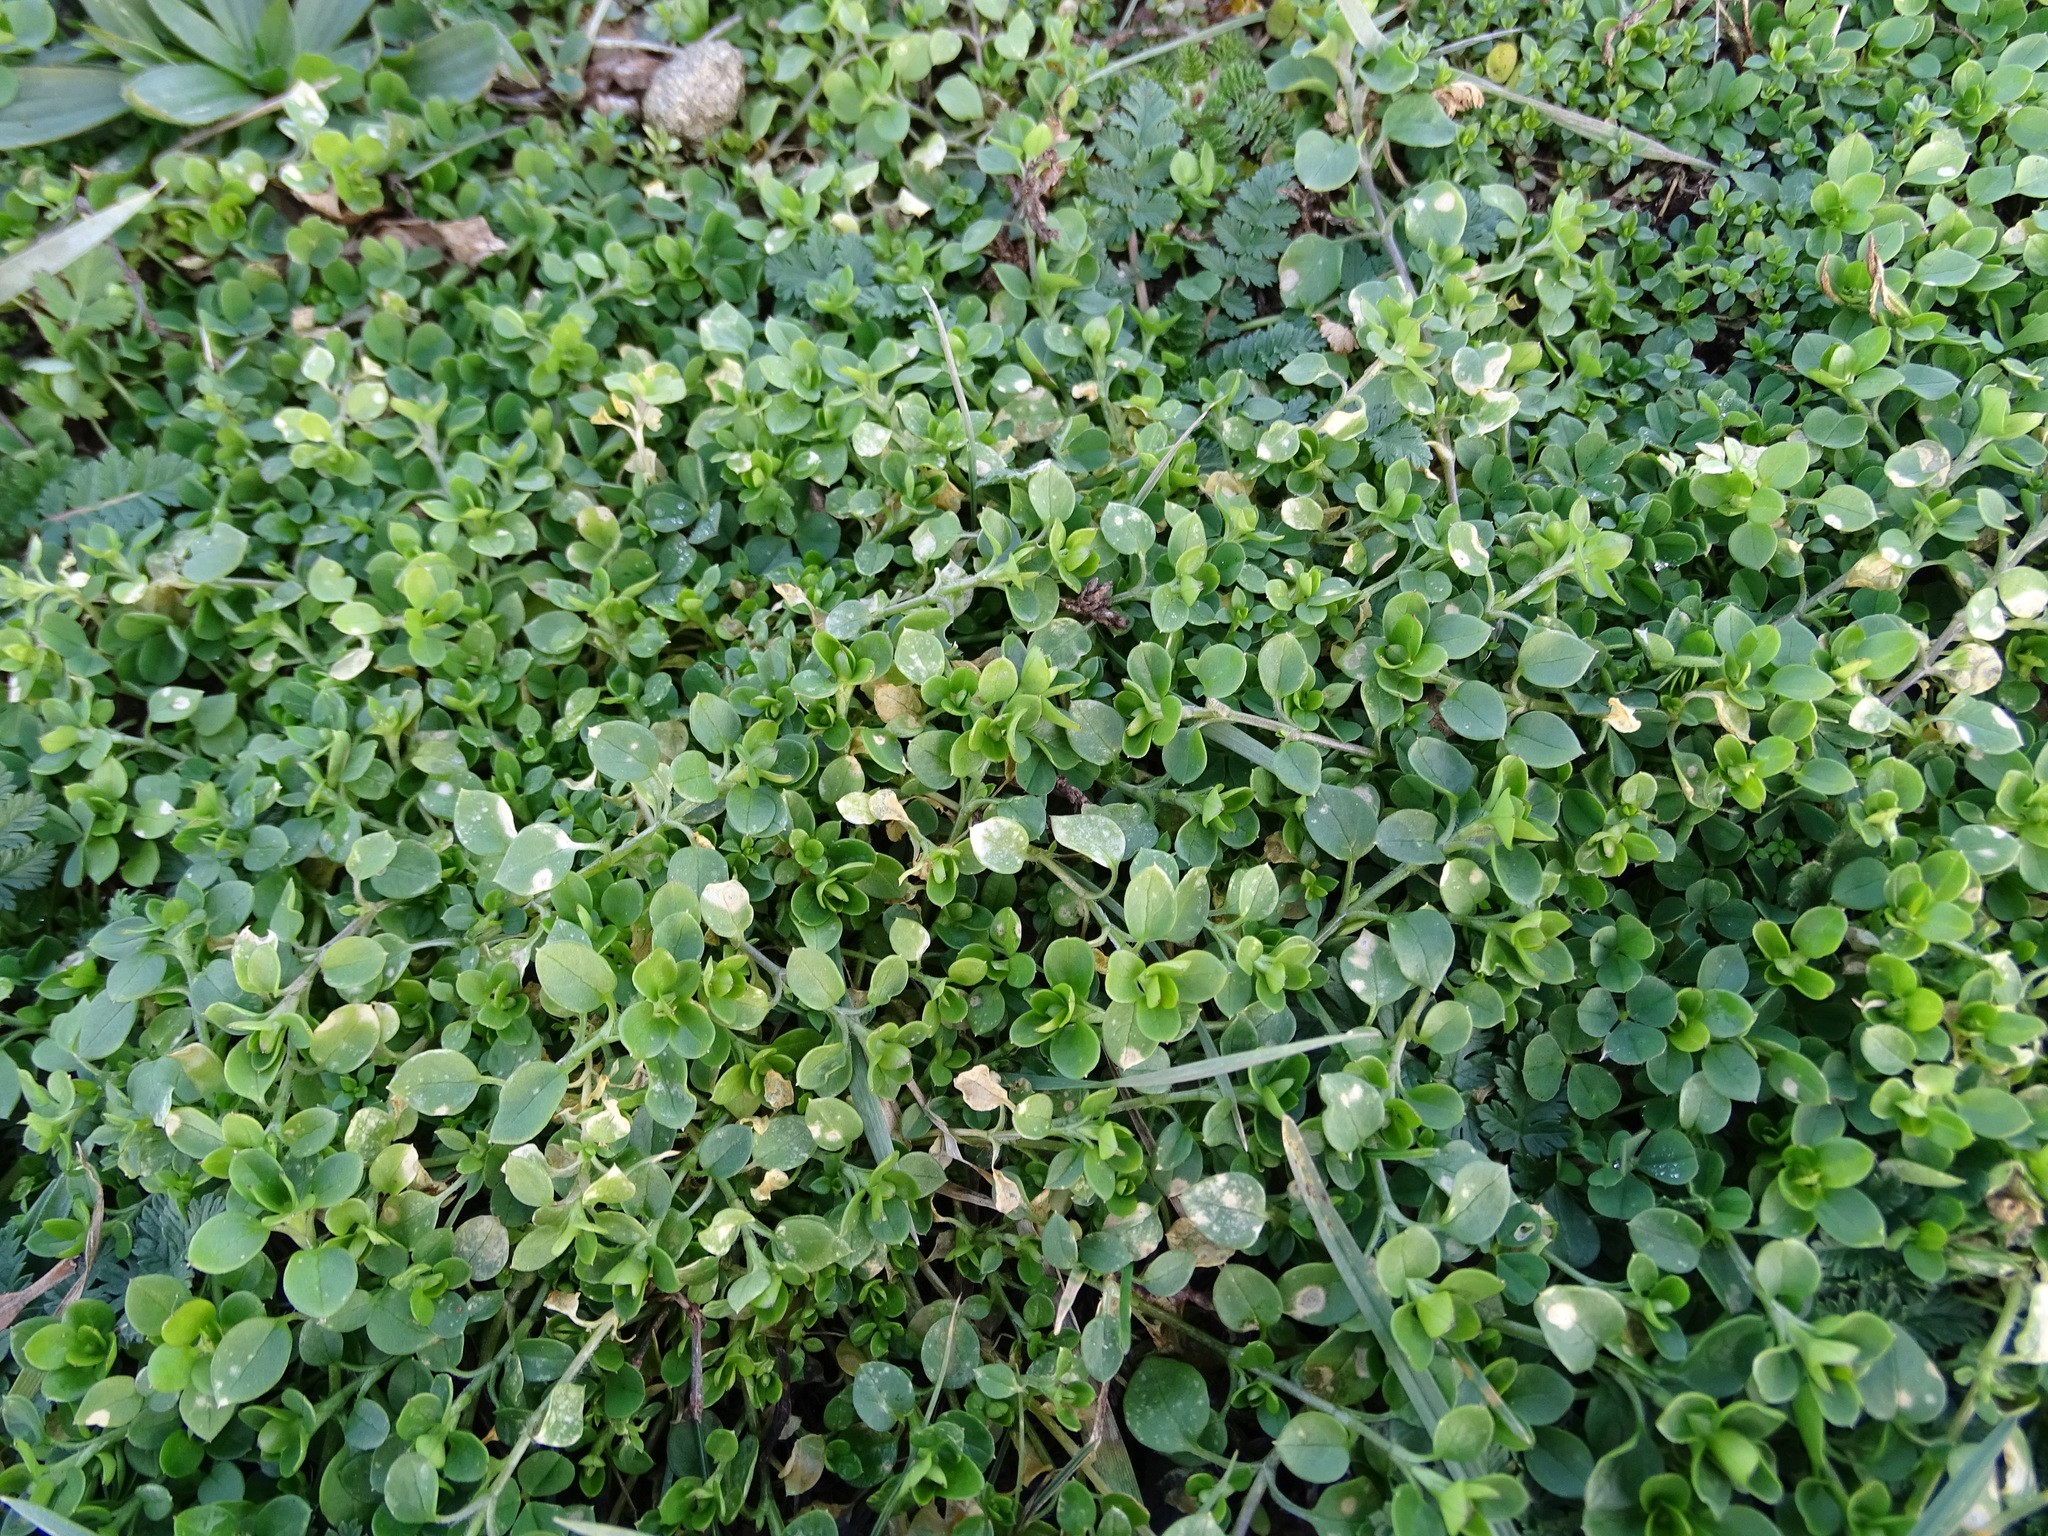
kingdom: Plantae
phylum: Tracheophyta
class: Magnoliopsida
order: Caryophyllales
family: Caryophyllaceae
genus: Stellaria
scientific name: Stellaria media
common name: Common chickweed
